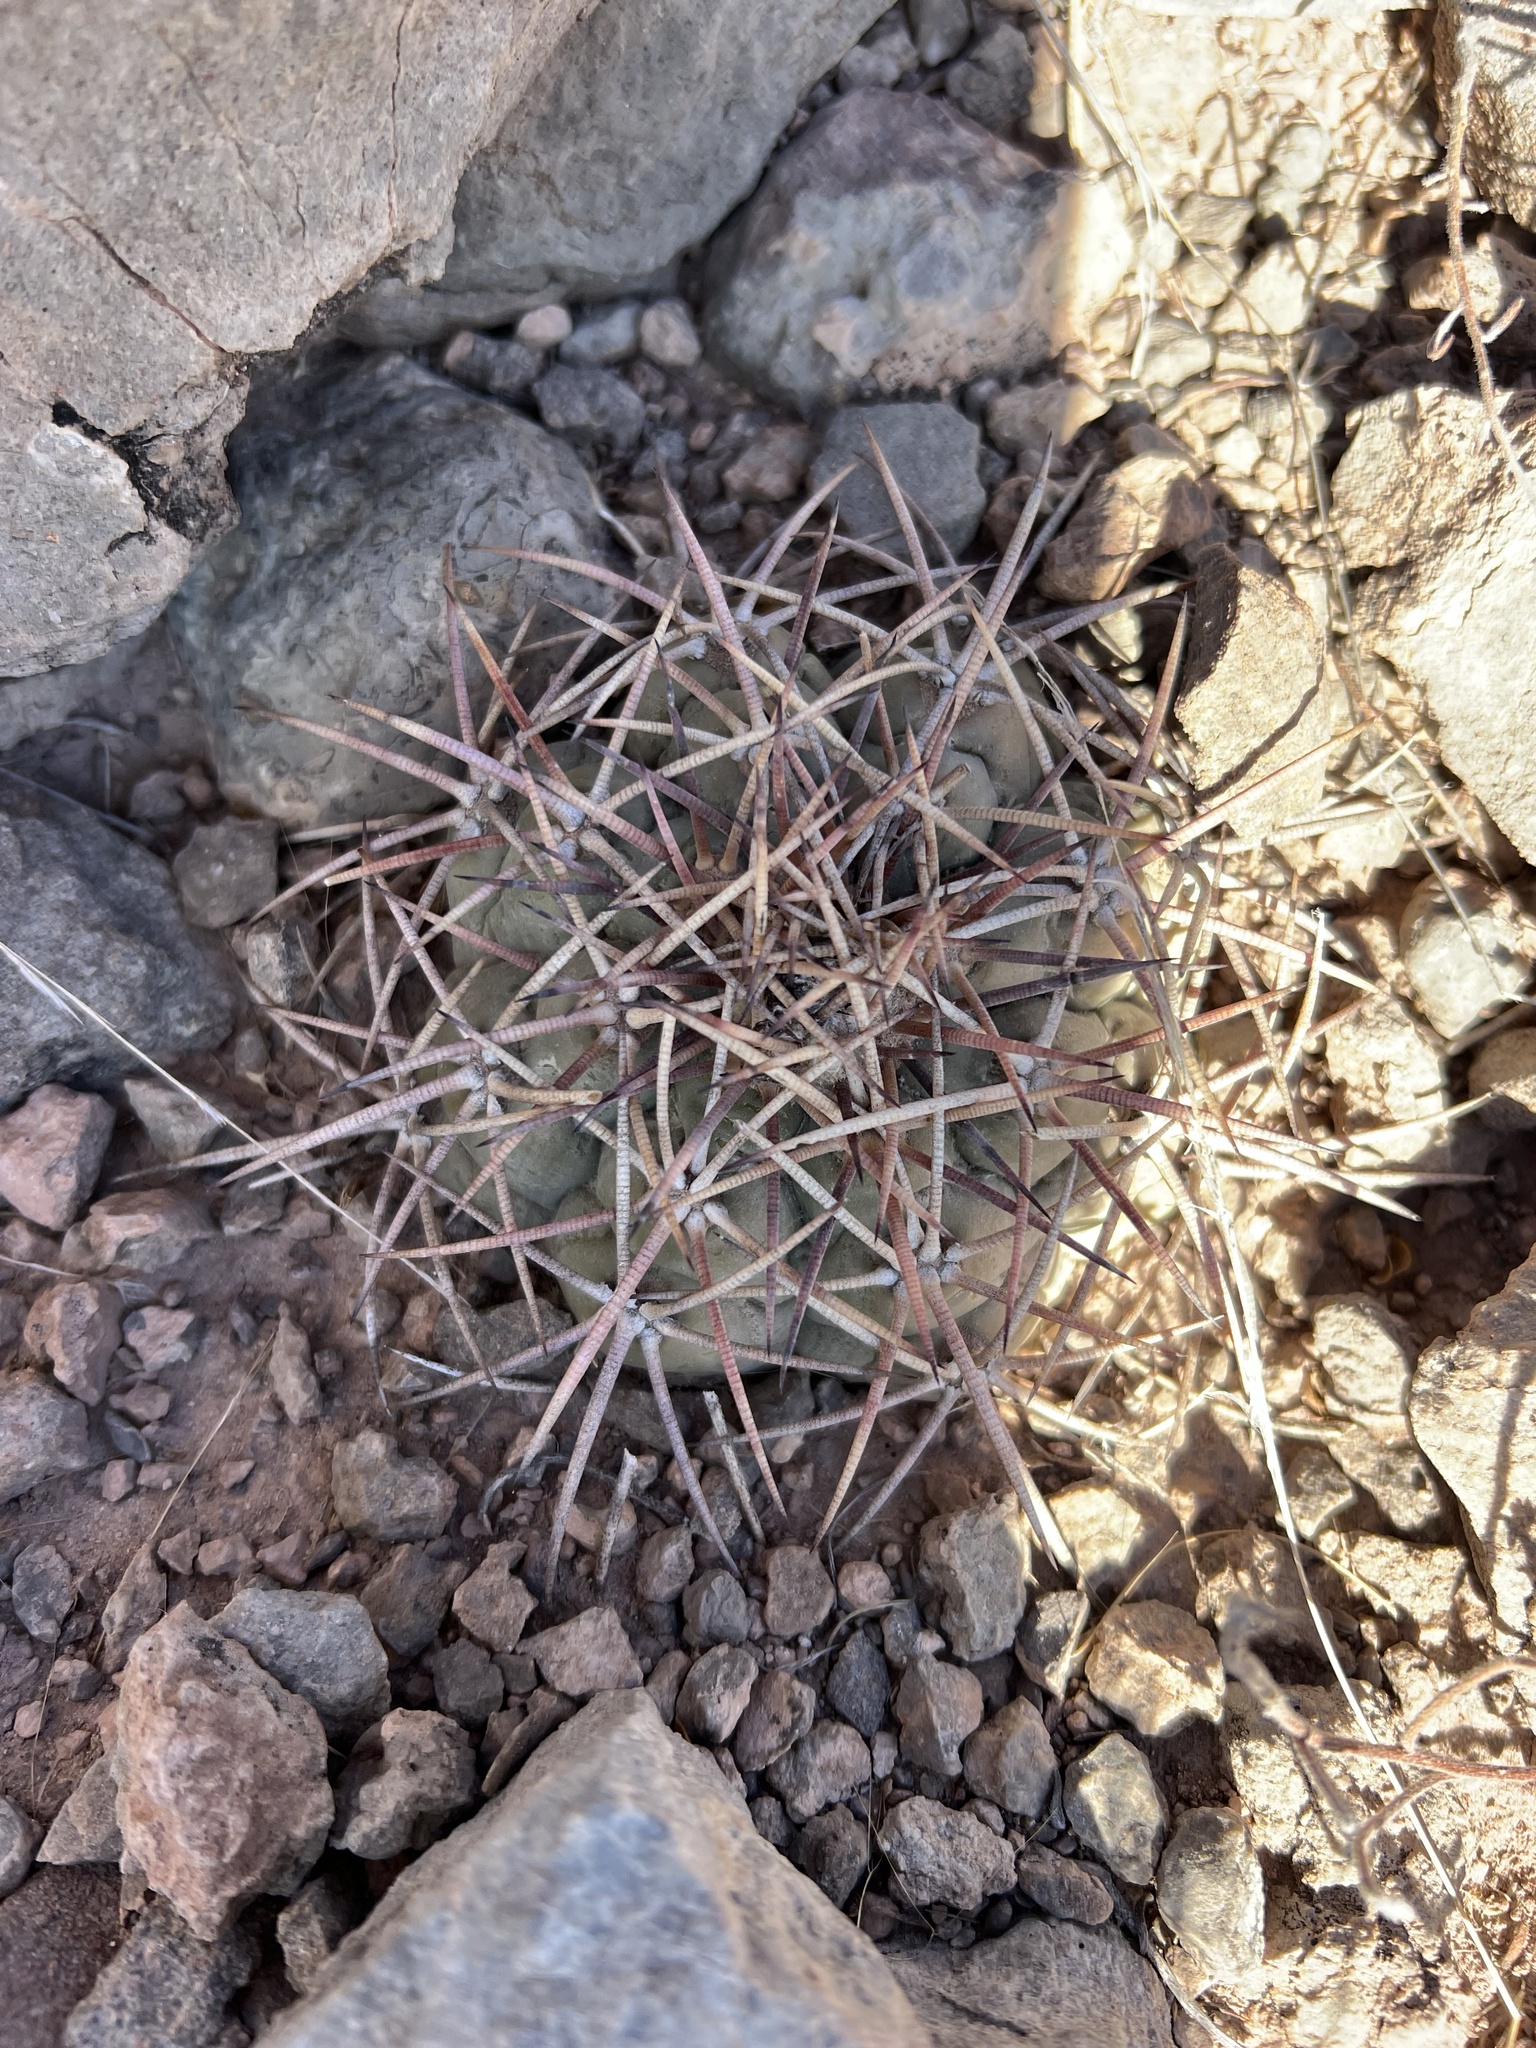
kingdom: Plantae
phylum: Tracheophyta
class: Magnoliopsida
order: Caryophyllales
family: Cactaceae
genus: Echinocactus
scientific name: Echinocactus horizonthalonius
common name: Devilshead
